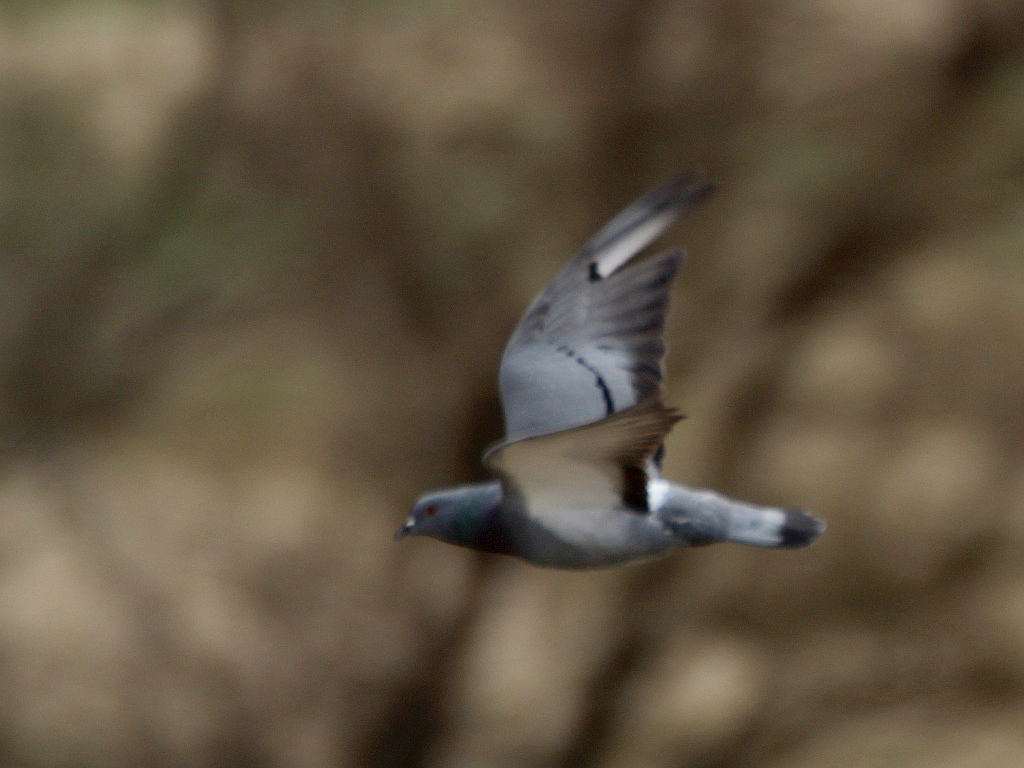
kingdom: Animalia
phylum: Chordata
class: Aves
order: Columbiformes
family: Columbidae
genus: Columba
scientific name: Columba livia
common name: Rock pigeon
